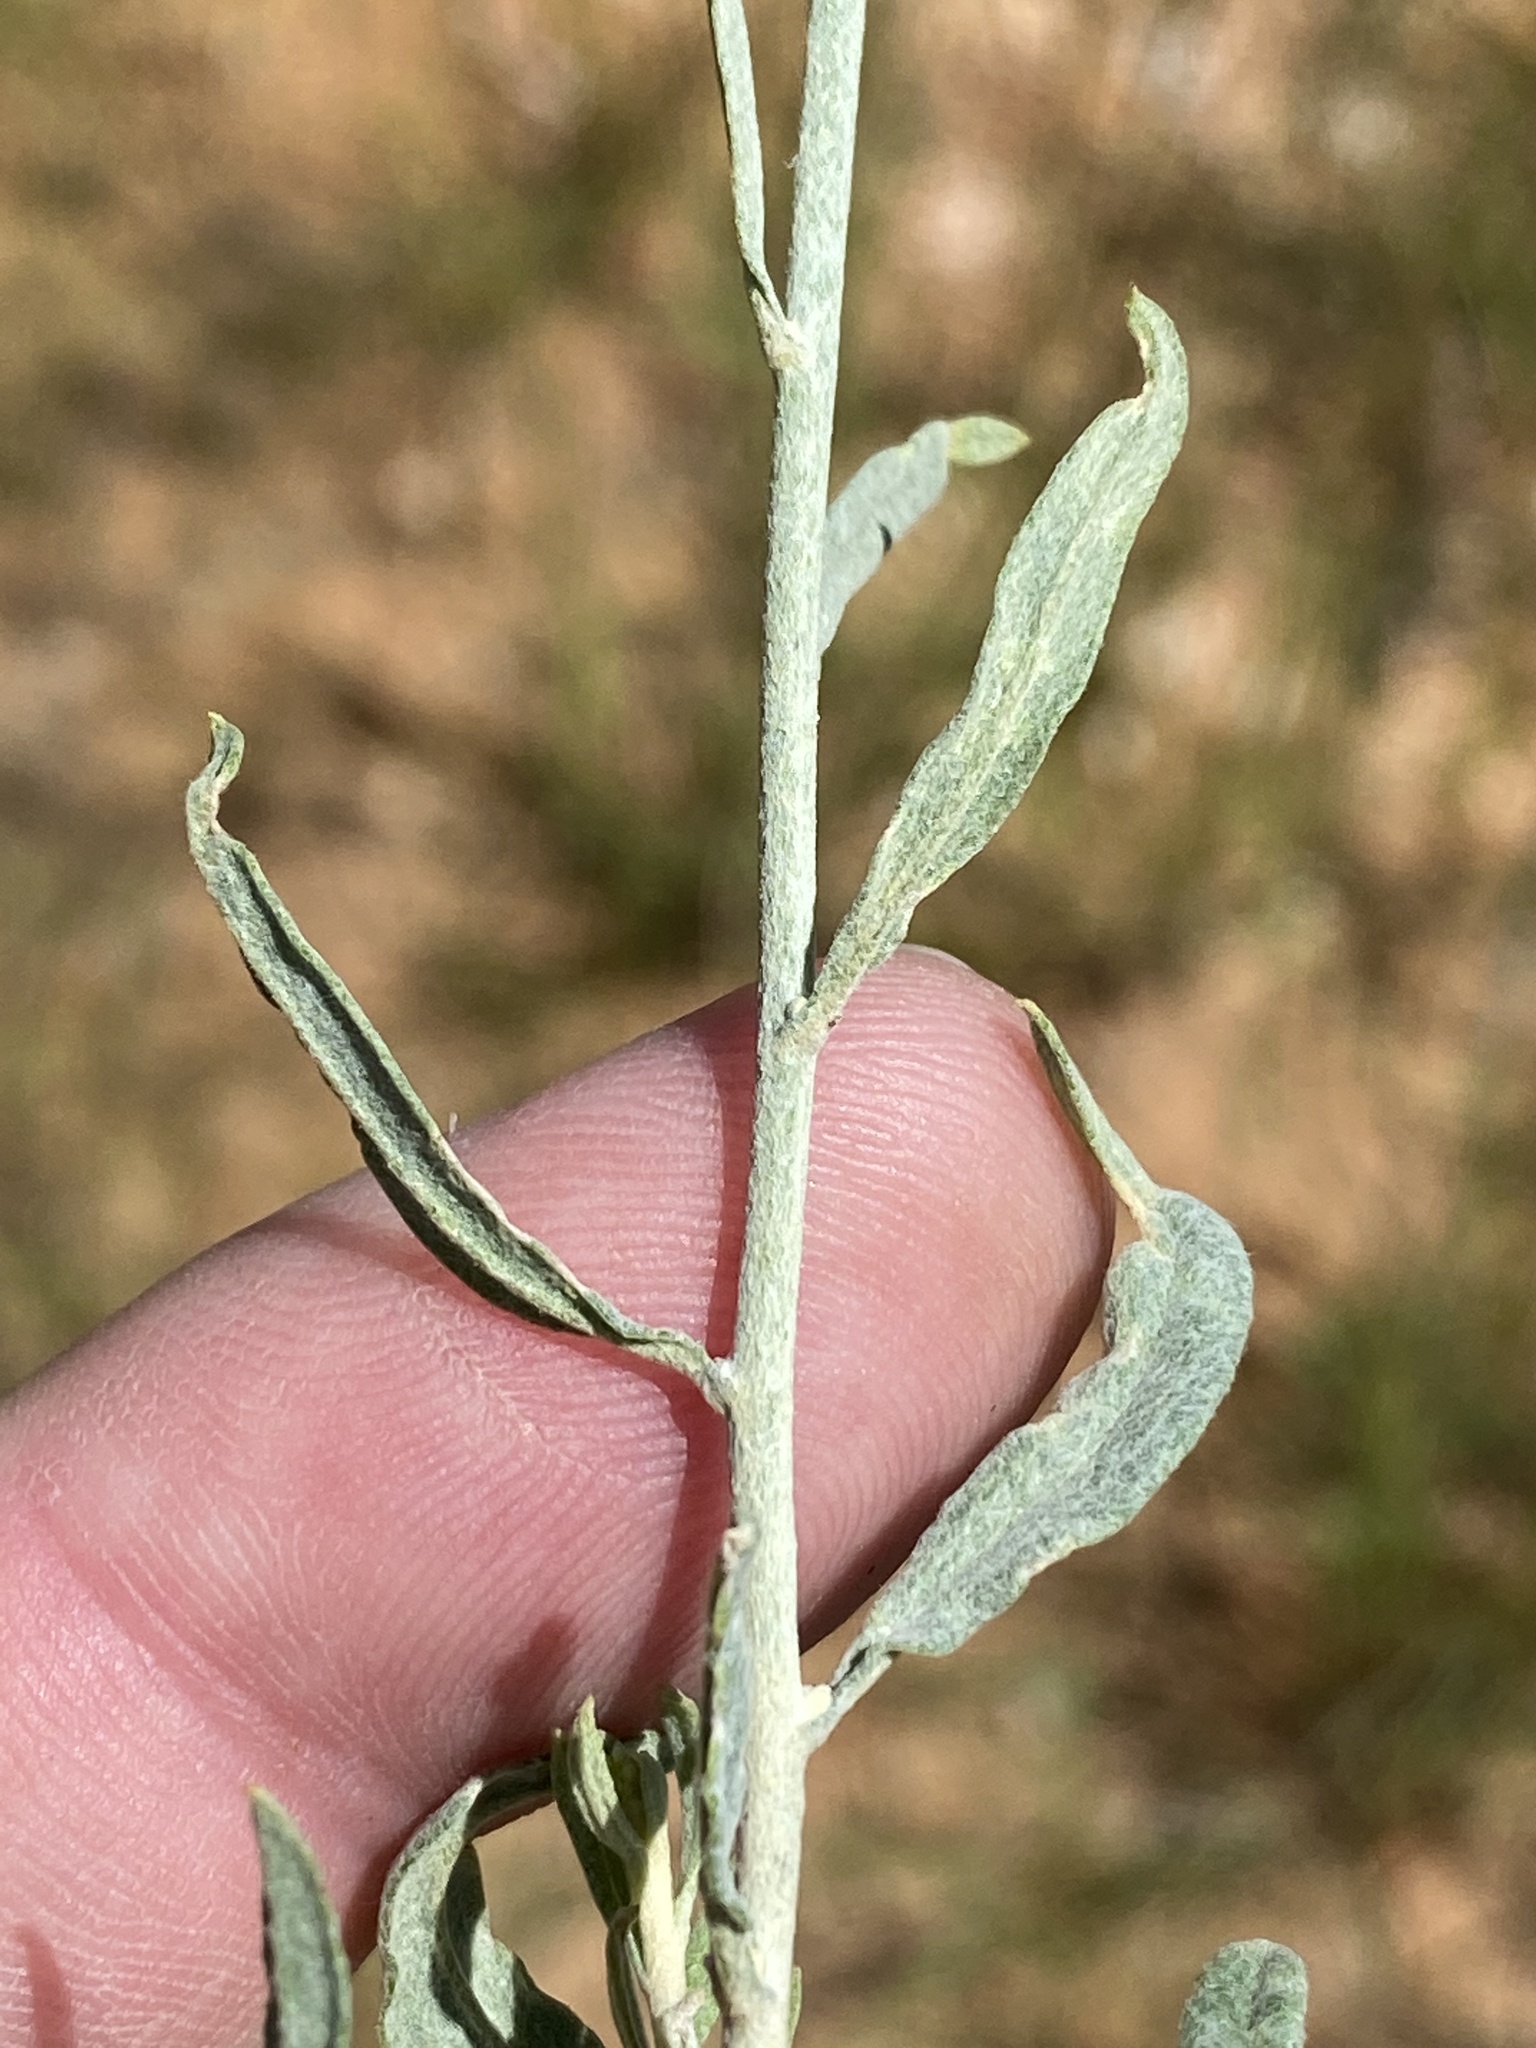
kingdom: Plantae
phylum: Tracheophyta
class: Magnoliopsida
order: Asterales
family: Asteraceae
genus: Helichrysum
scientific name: Helichrysum tomentosulum
